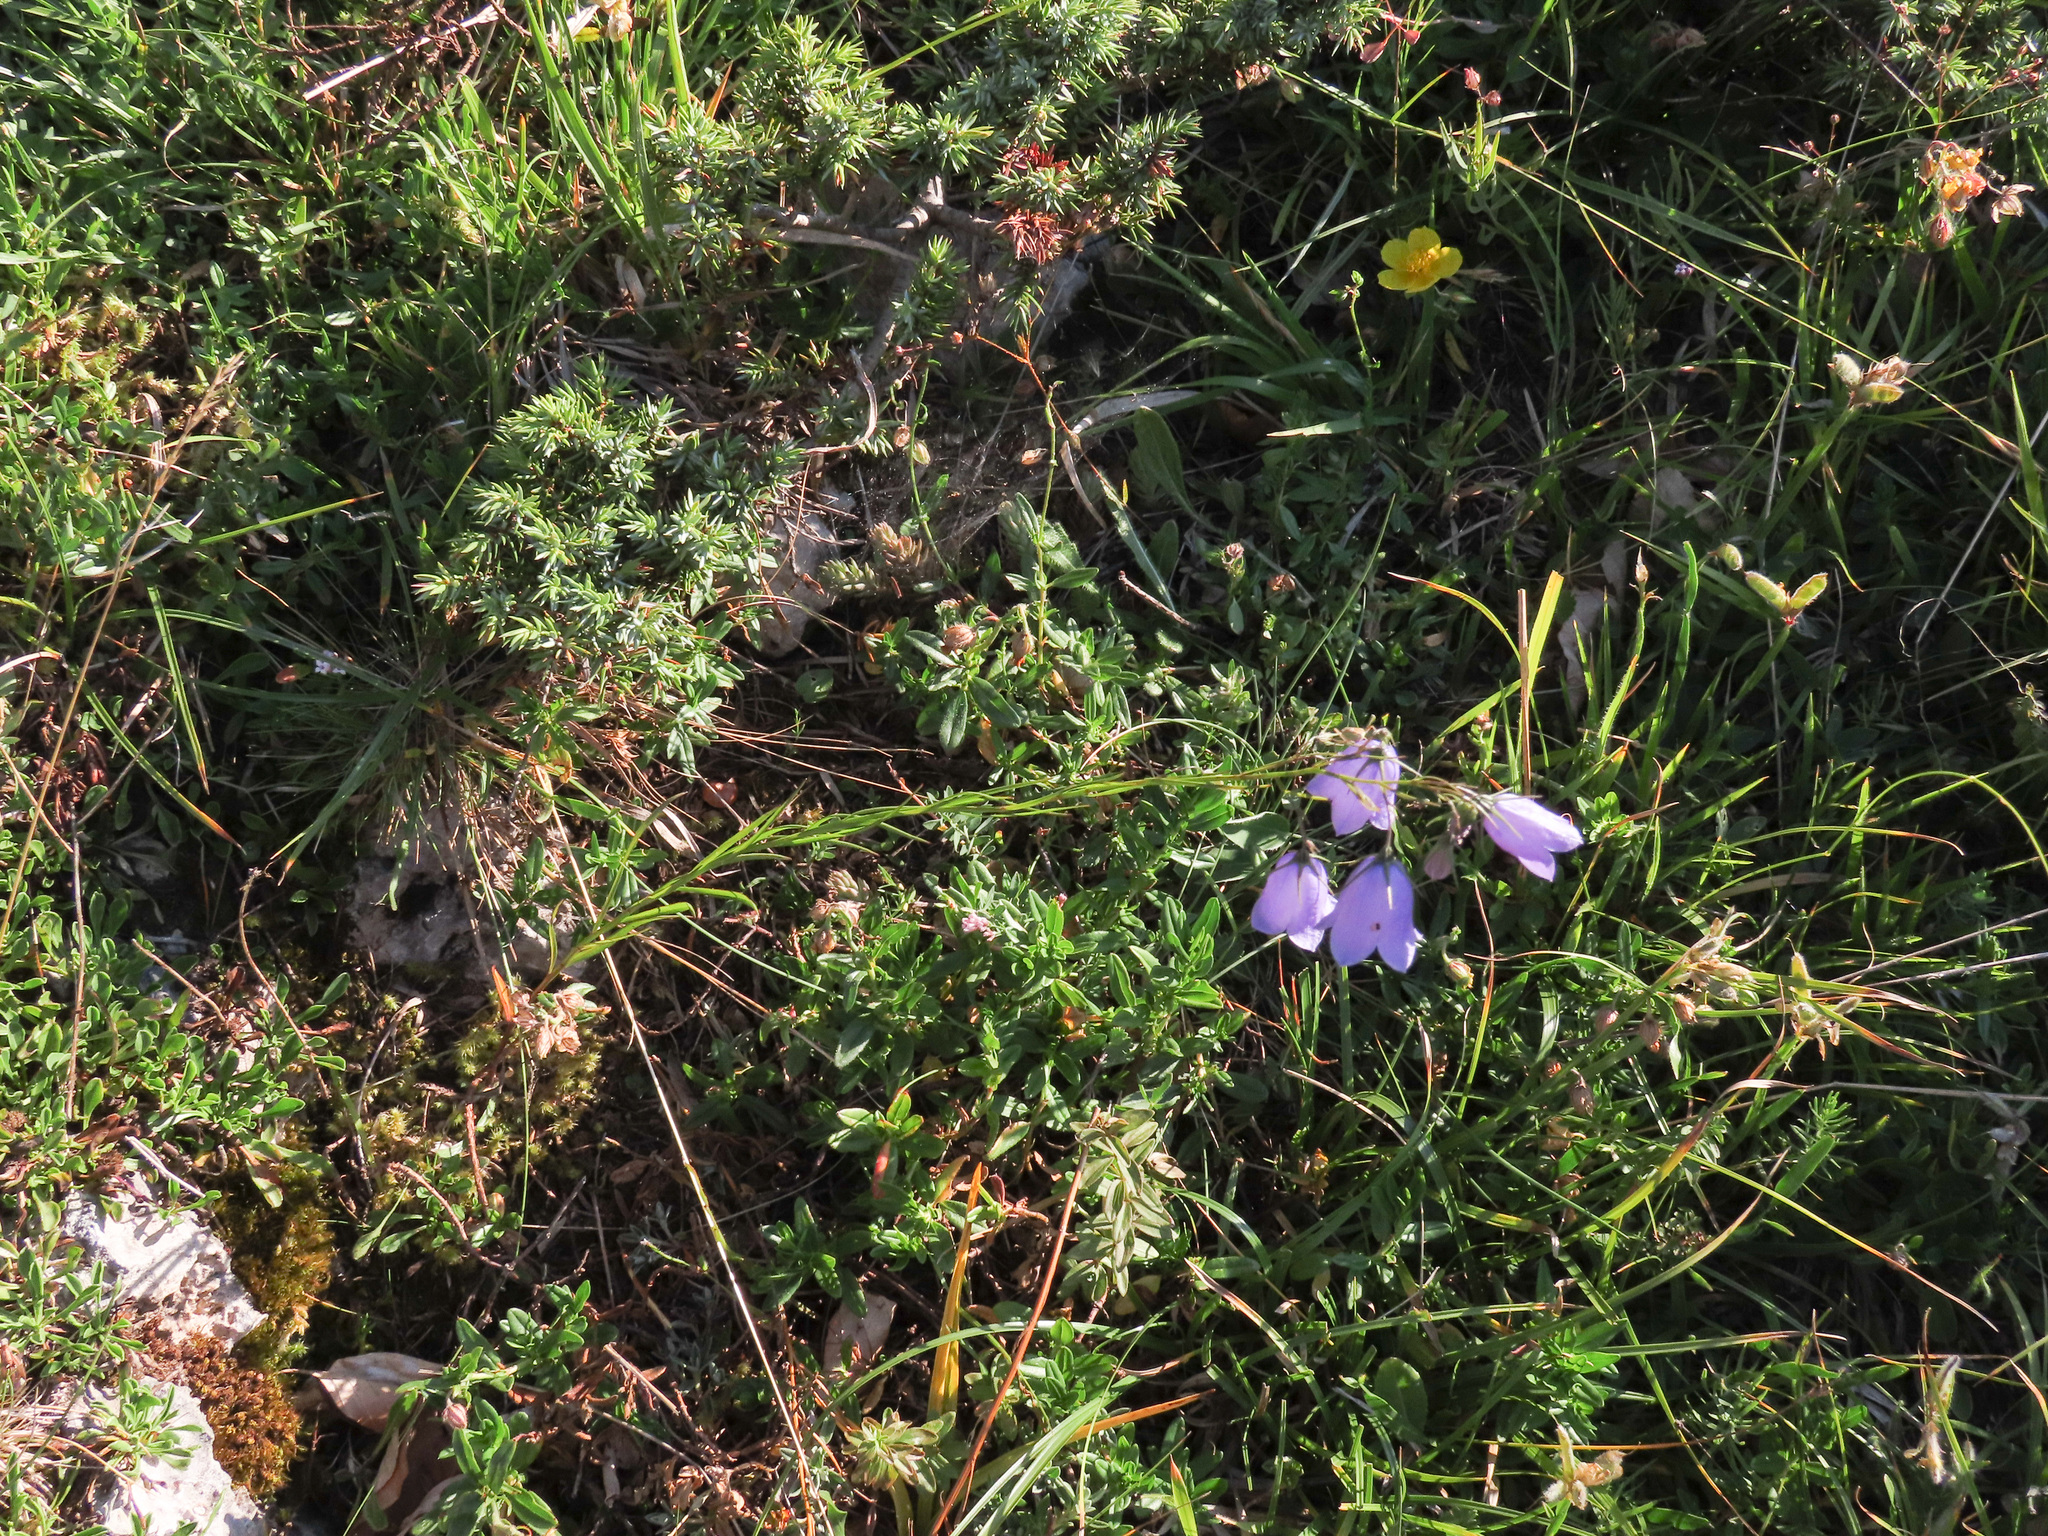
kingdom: Plantae
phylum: Tracheophyta
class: Magnoliopsida
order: Asterales
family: Campanulaceae
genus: Campanula
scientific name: Campanula micrantha
